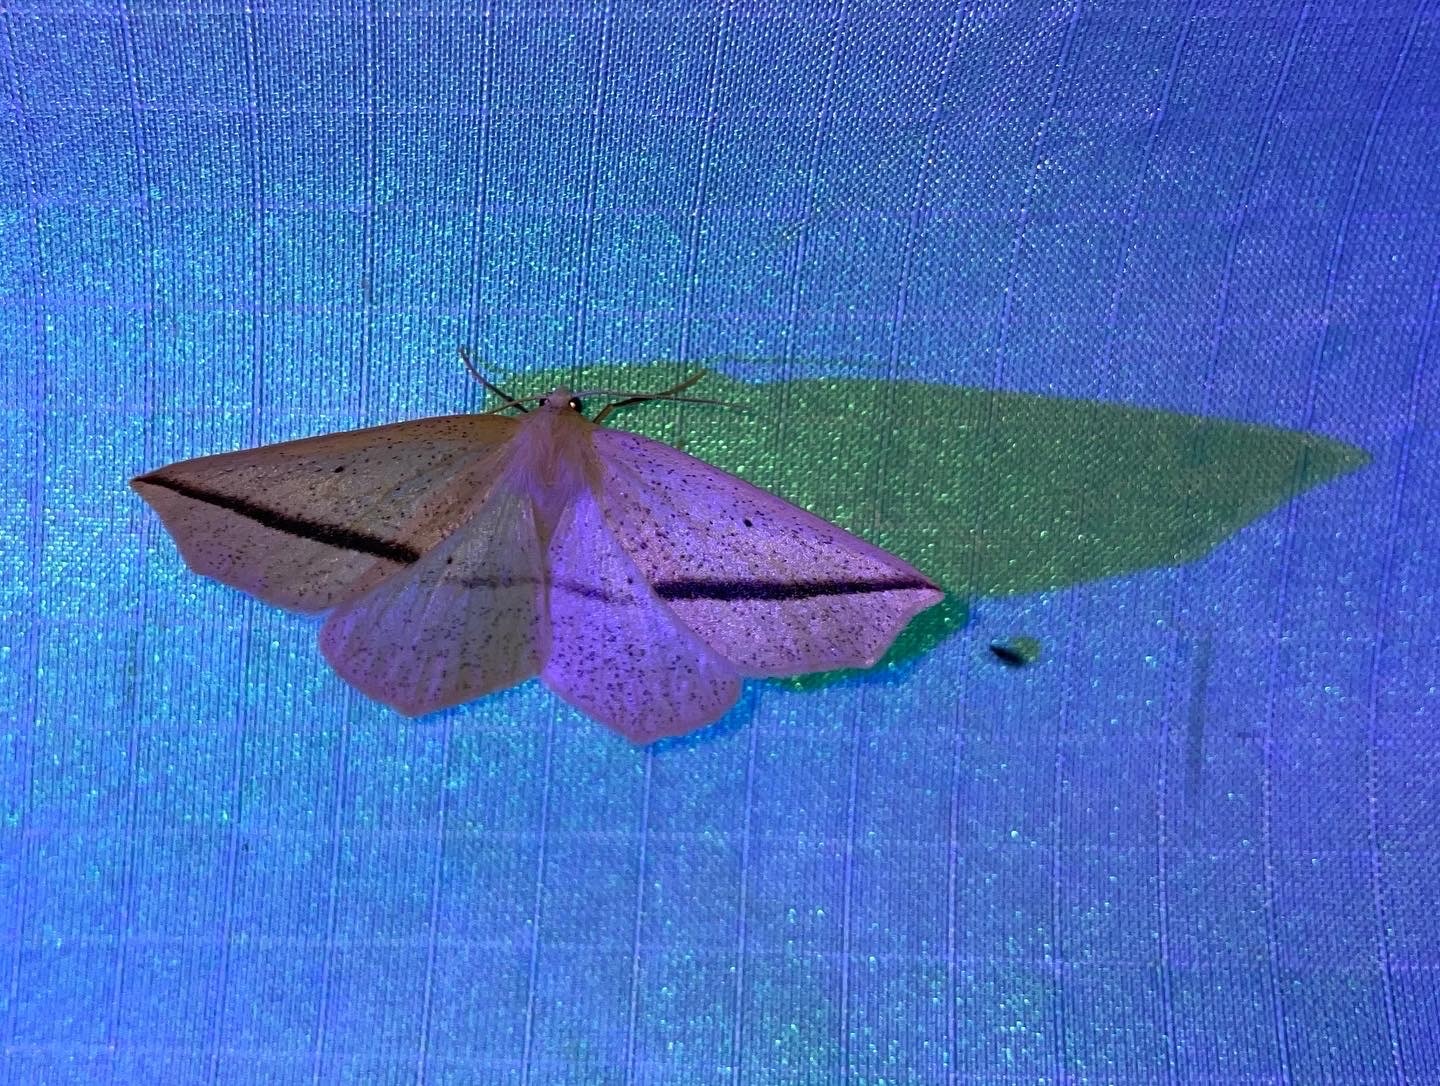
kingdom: Animalia
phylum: Arthropoda
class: Insecta
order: Lepidoptera
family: Geometridae
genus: Tetracis
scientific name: Tetracis crocallata
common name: Yellow slant-line
